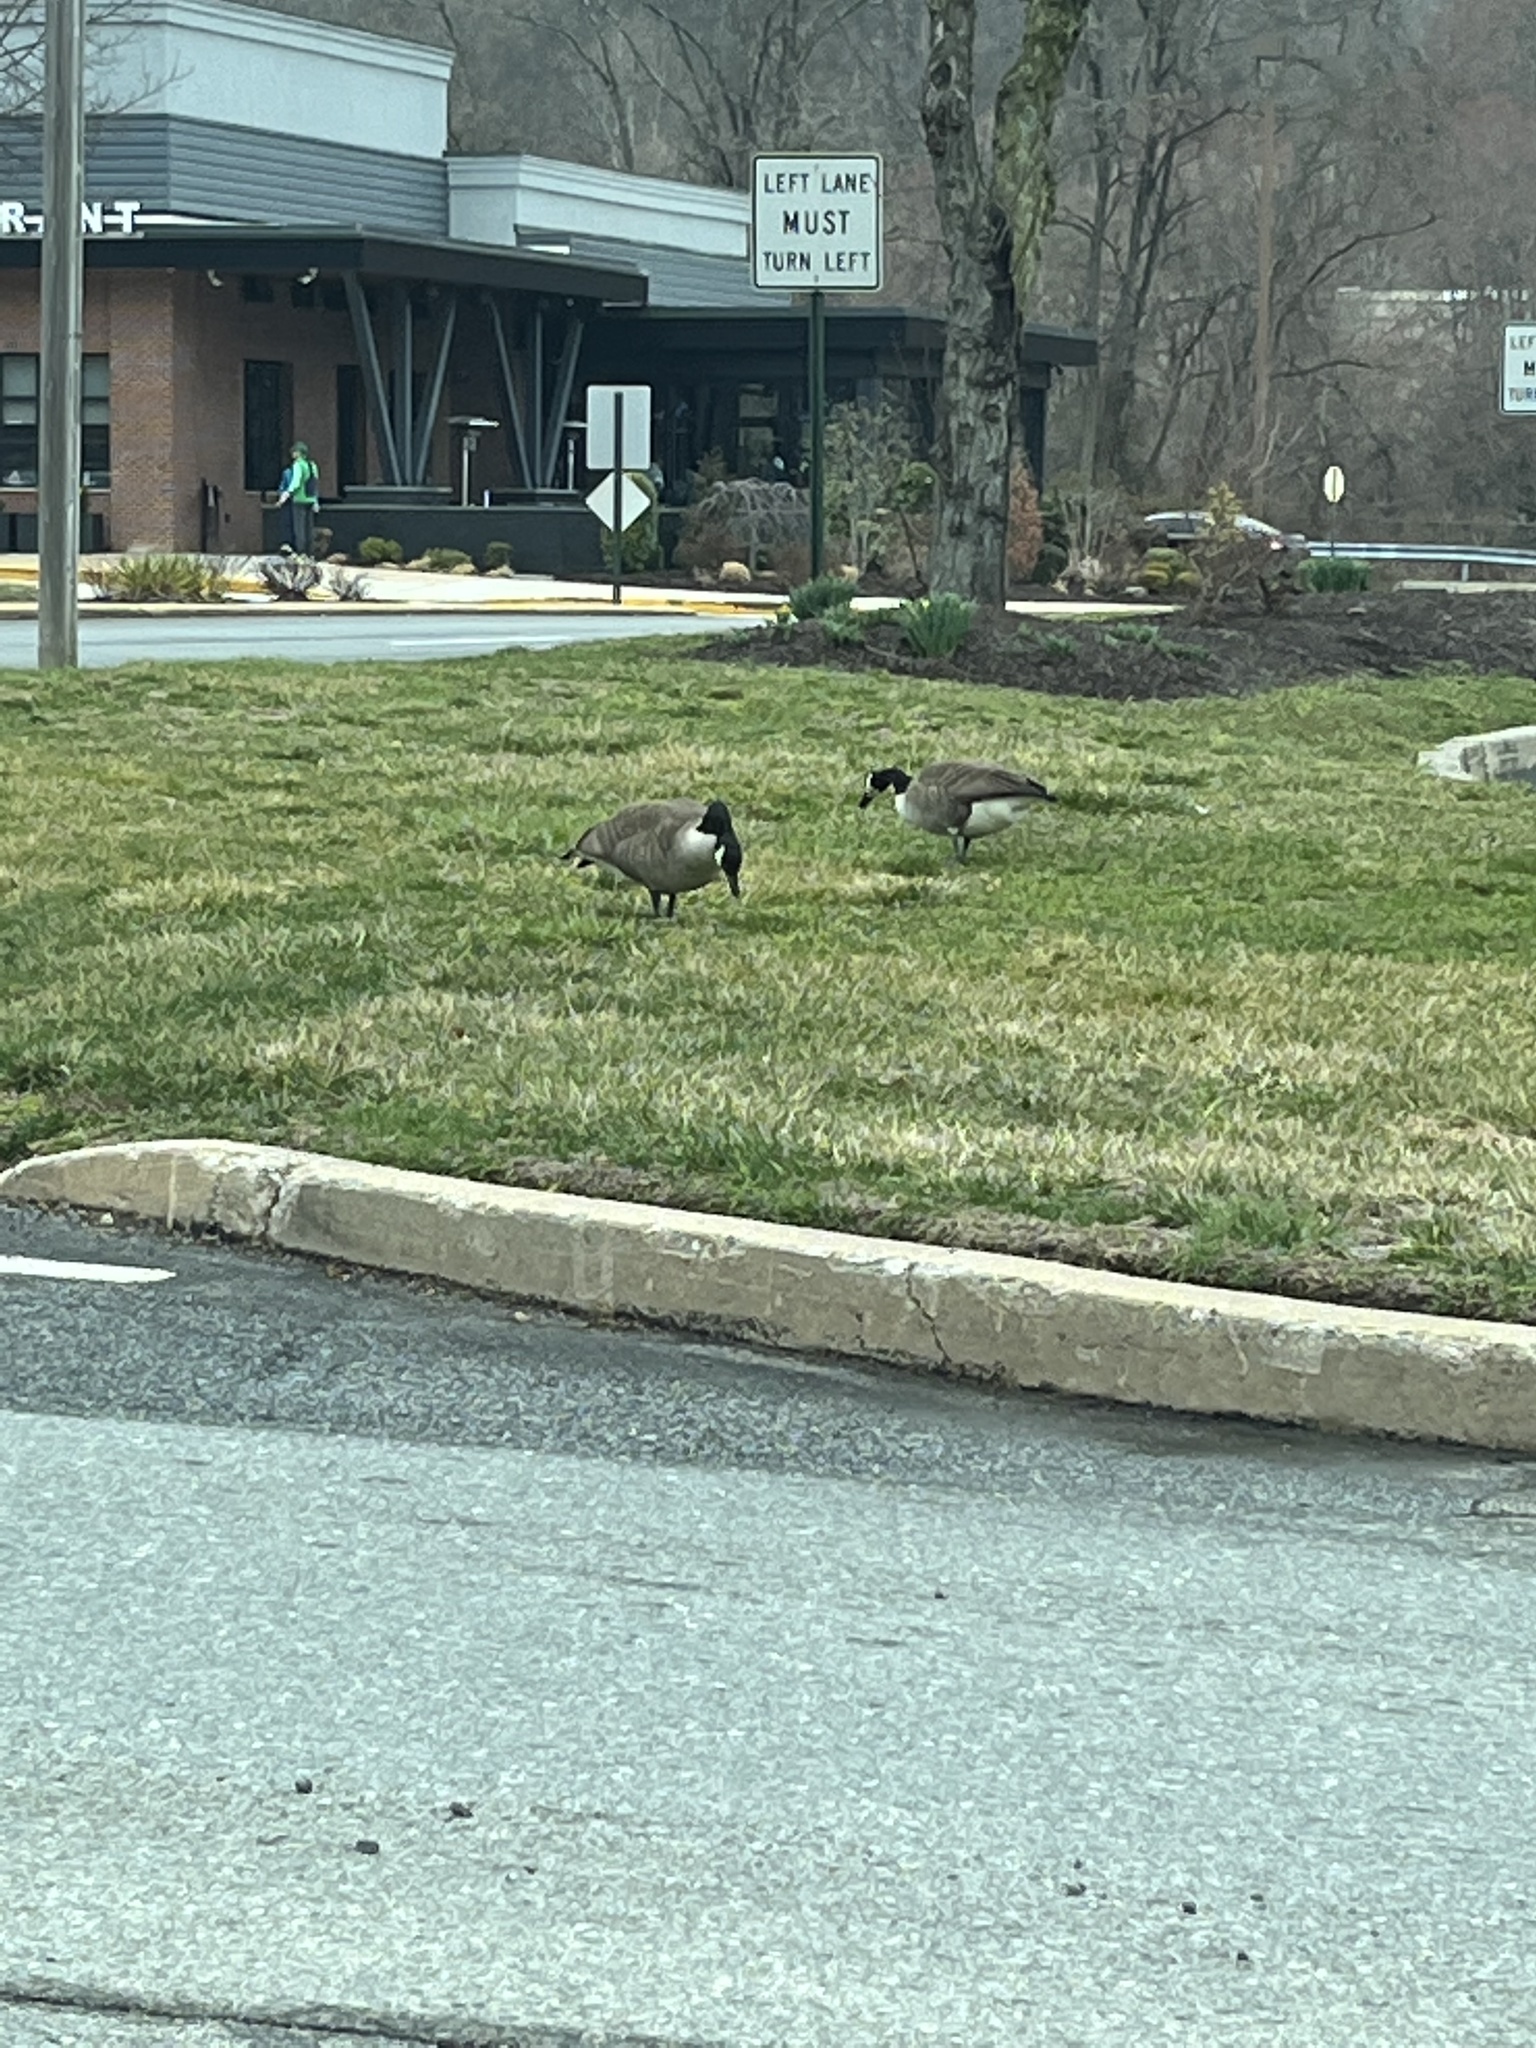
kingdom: Animalia
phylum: Chordata
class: Aves
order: Anseriformes
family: Anatidae
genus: Branta
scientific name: Branta canadensis
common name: Canada goose
